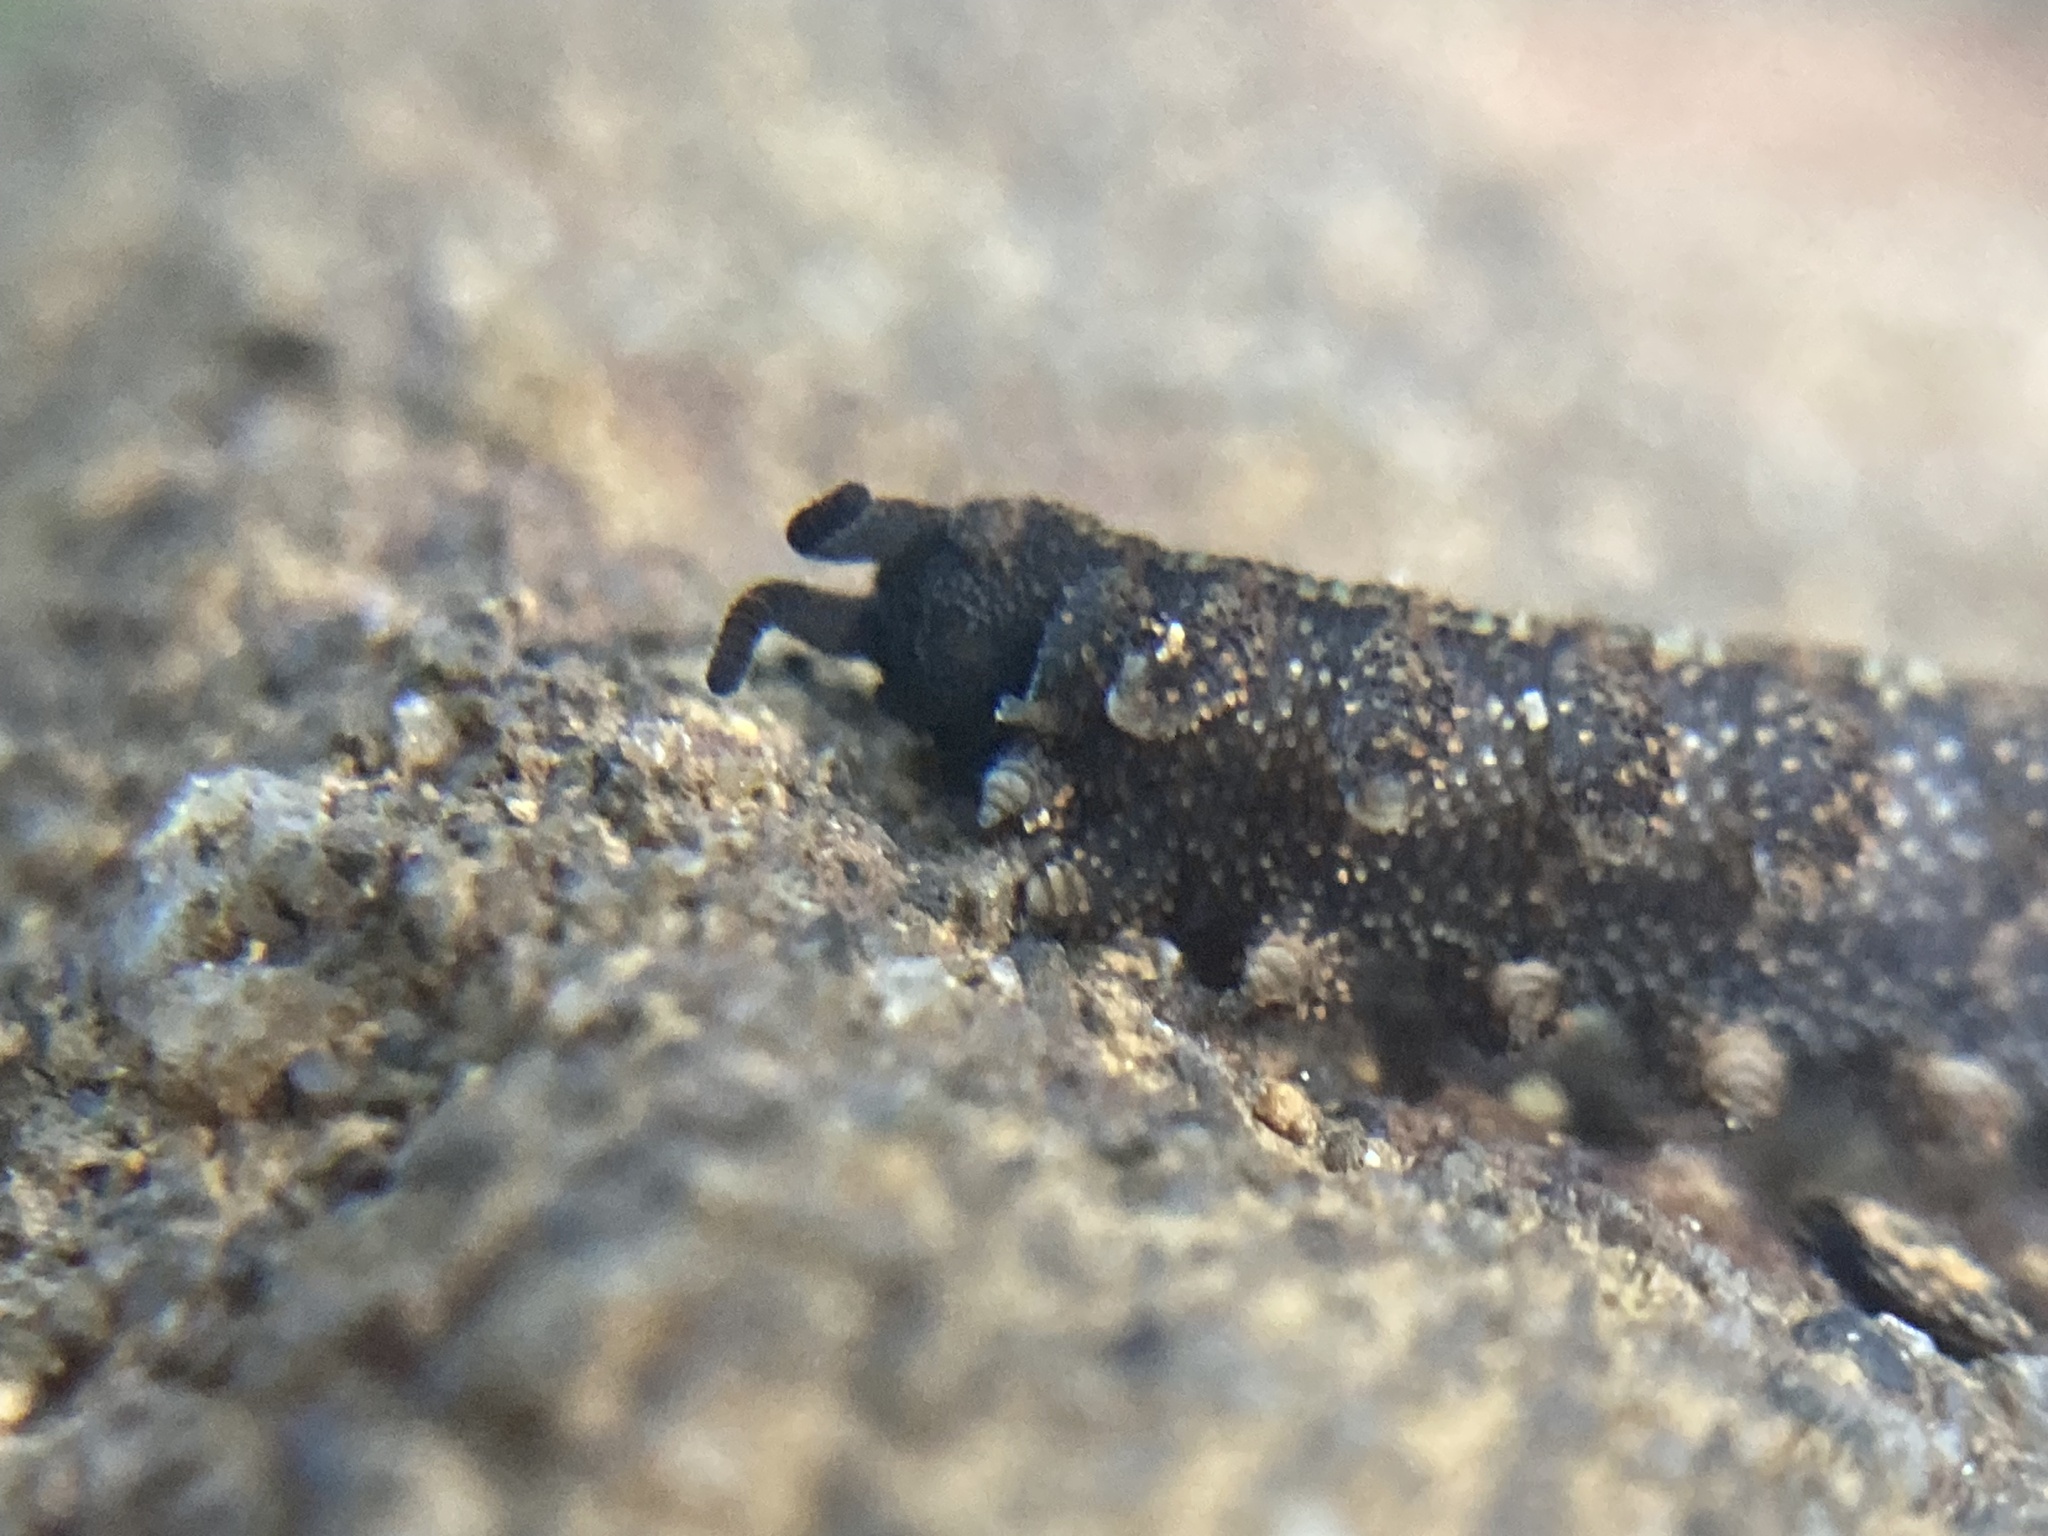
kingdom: Animalia
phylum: Onychophora
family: Peripatopsidae
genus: Anoplokaros
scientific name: Anoplokaros keerensis
